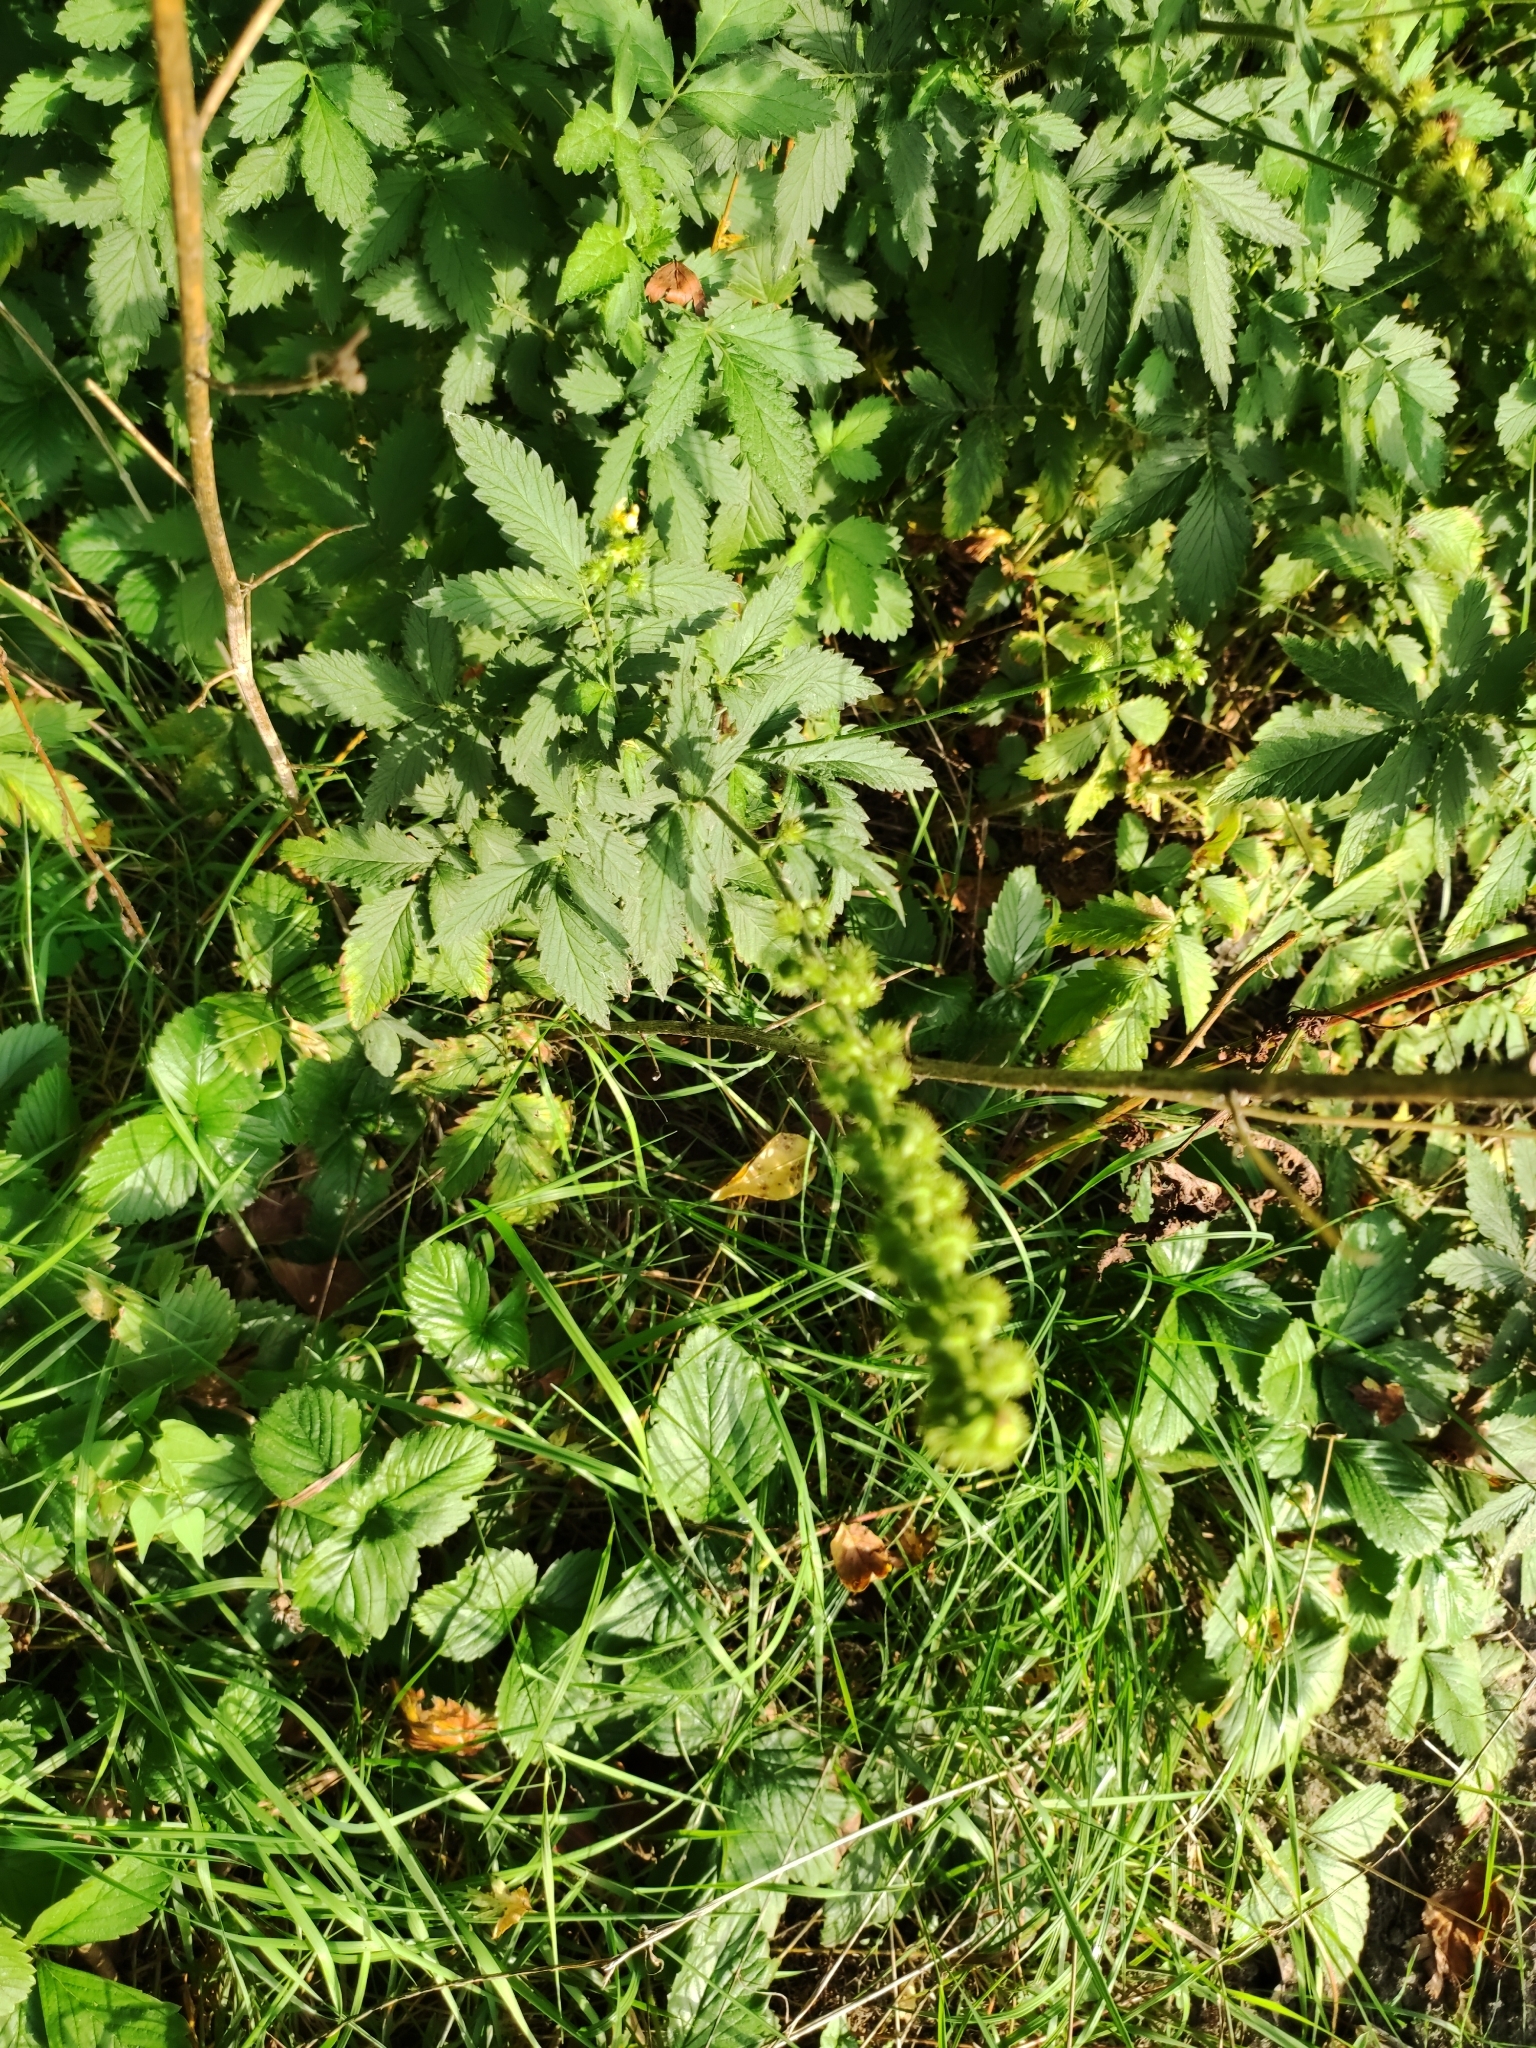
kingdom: Plantae
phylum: Tracheophyta
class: Magnoliopsida
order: Rosales
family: Rosaceae
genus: Agrimonia
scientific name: Agrimonia eupatoria
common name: Agrimony
